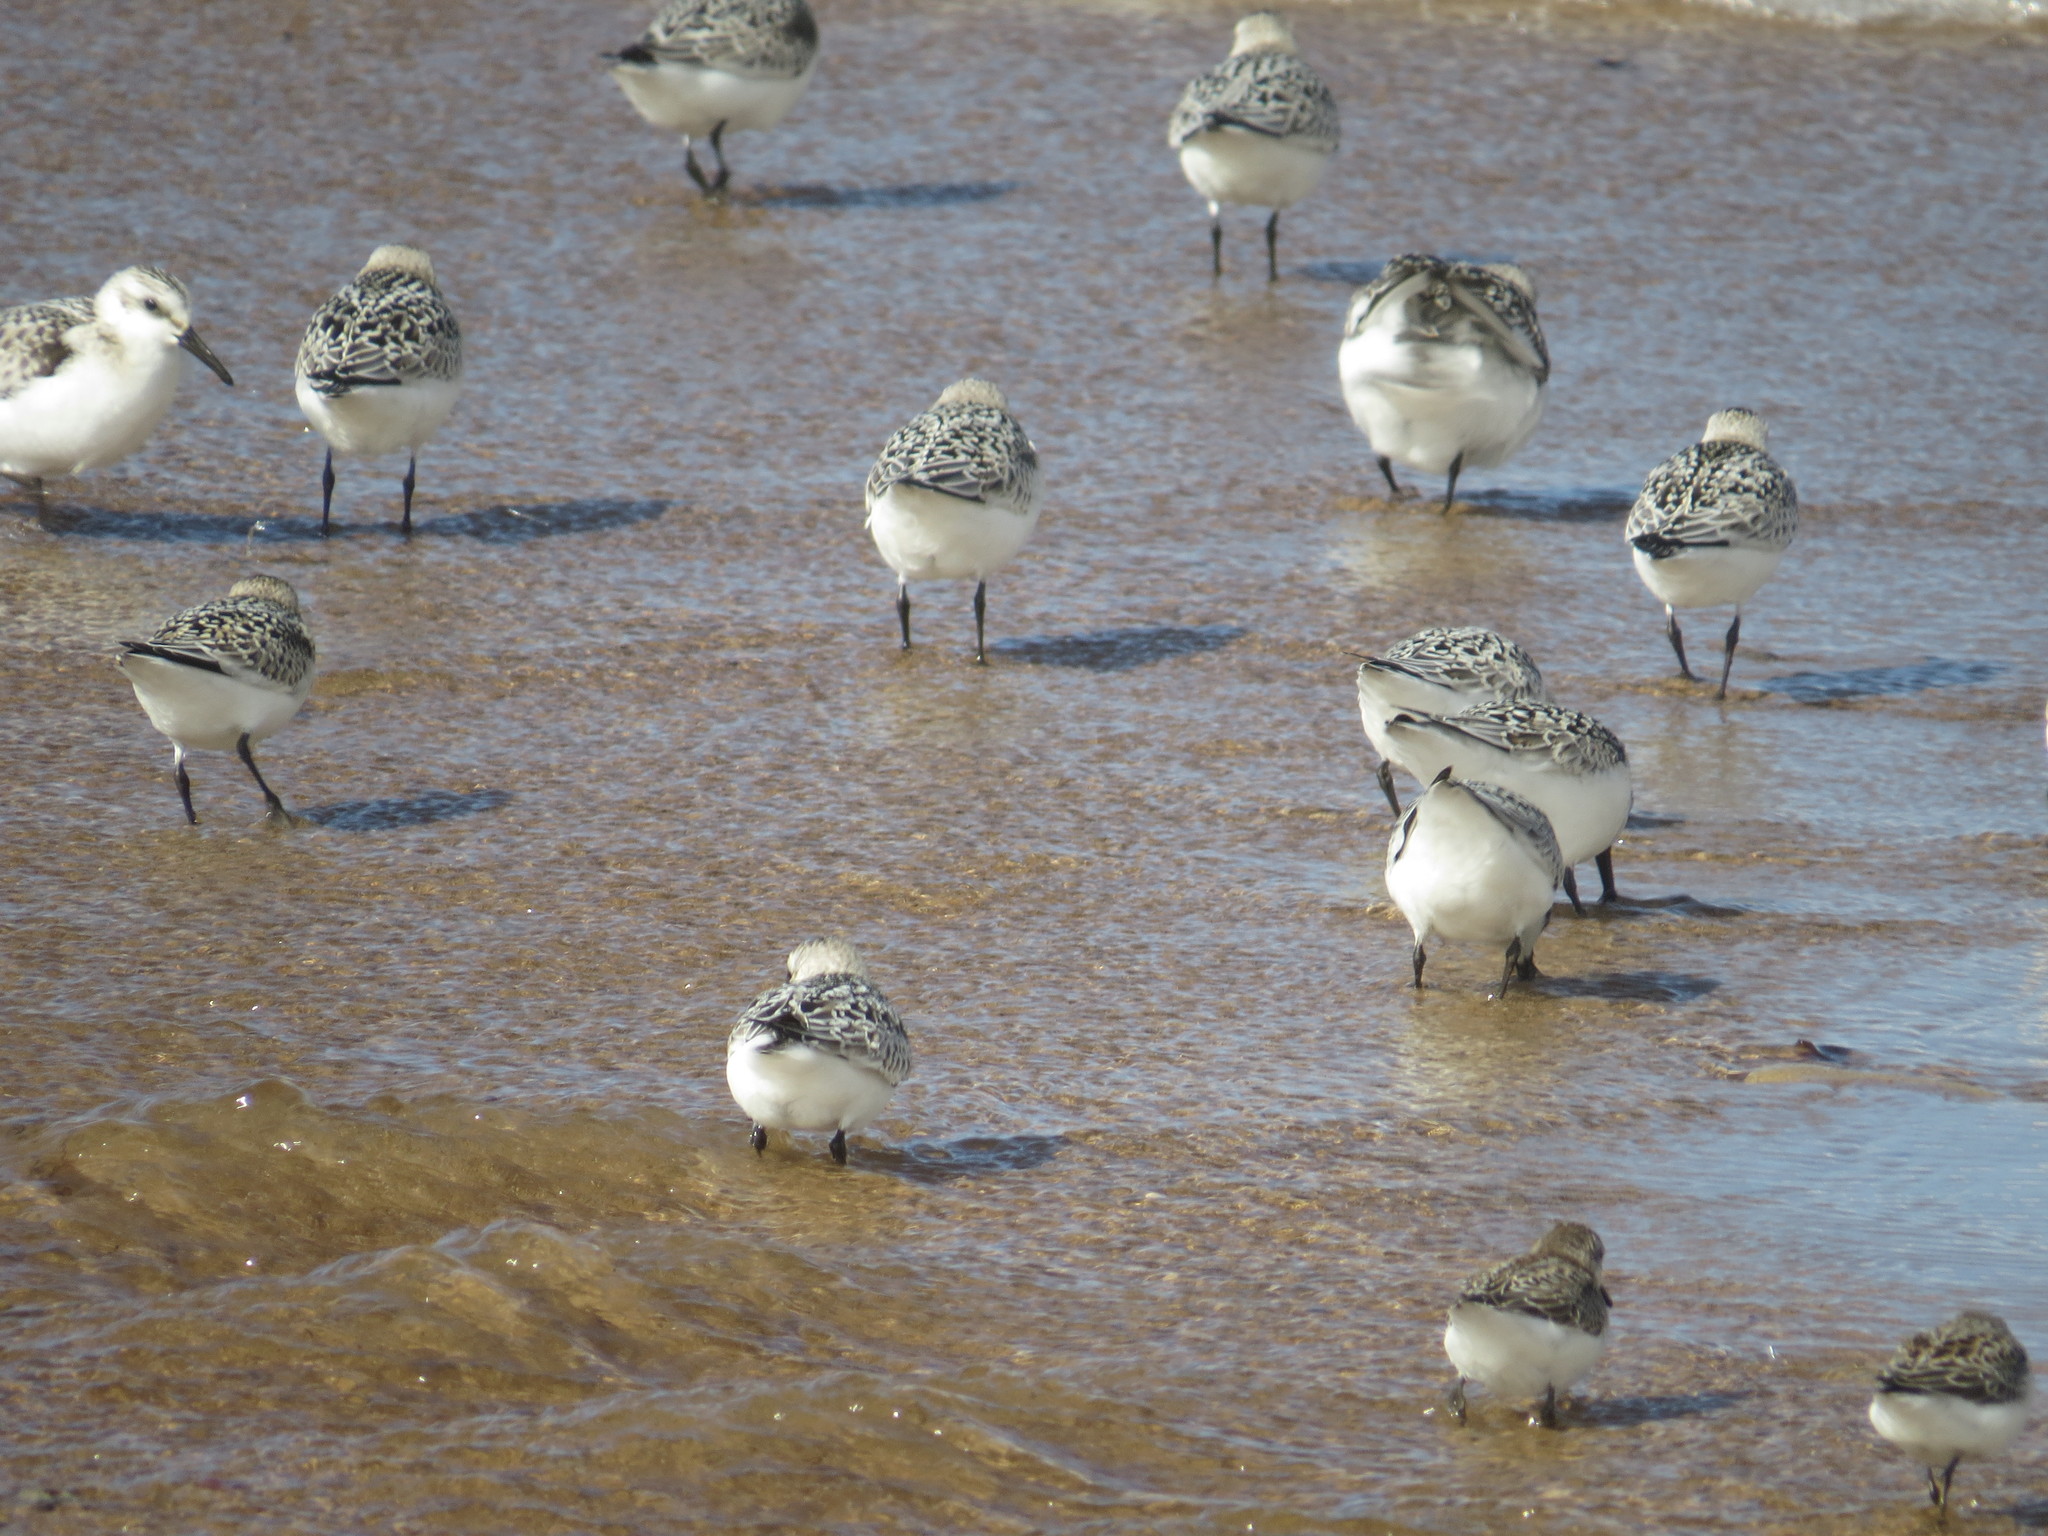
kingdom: Animalia
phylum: Chordata
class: Aves
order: Charadriiformes
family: Scolopacidae
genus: Calidris
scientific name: Calidris alba
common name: Sanderling
